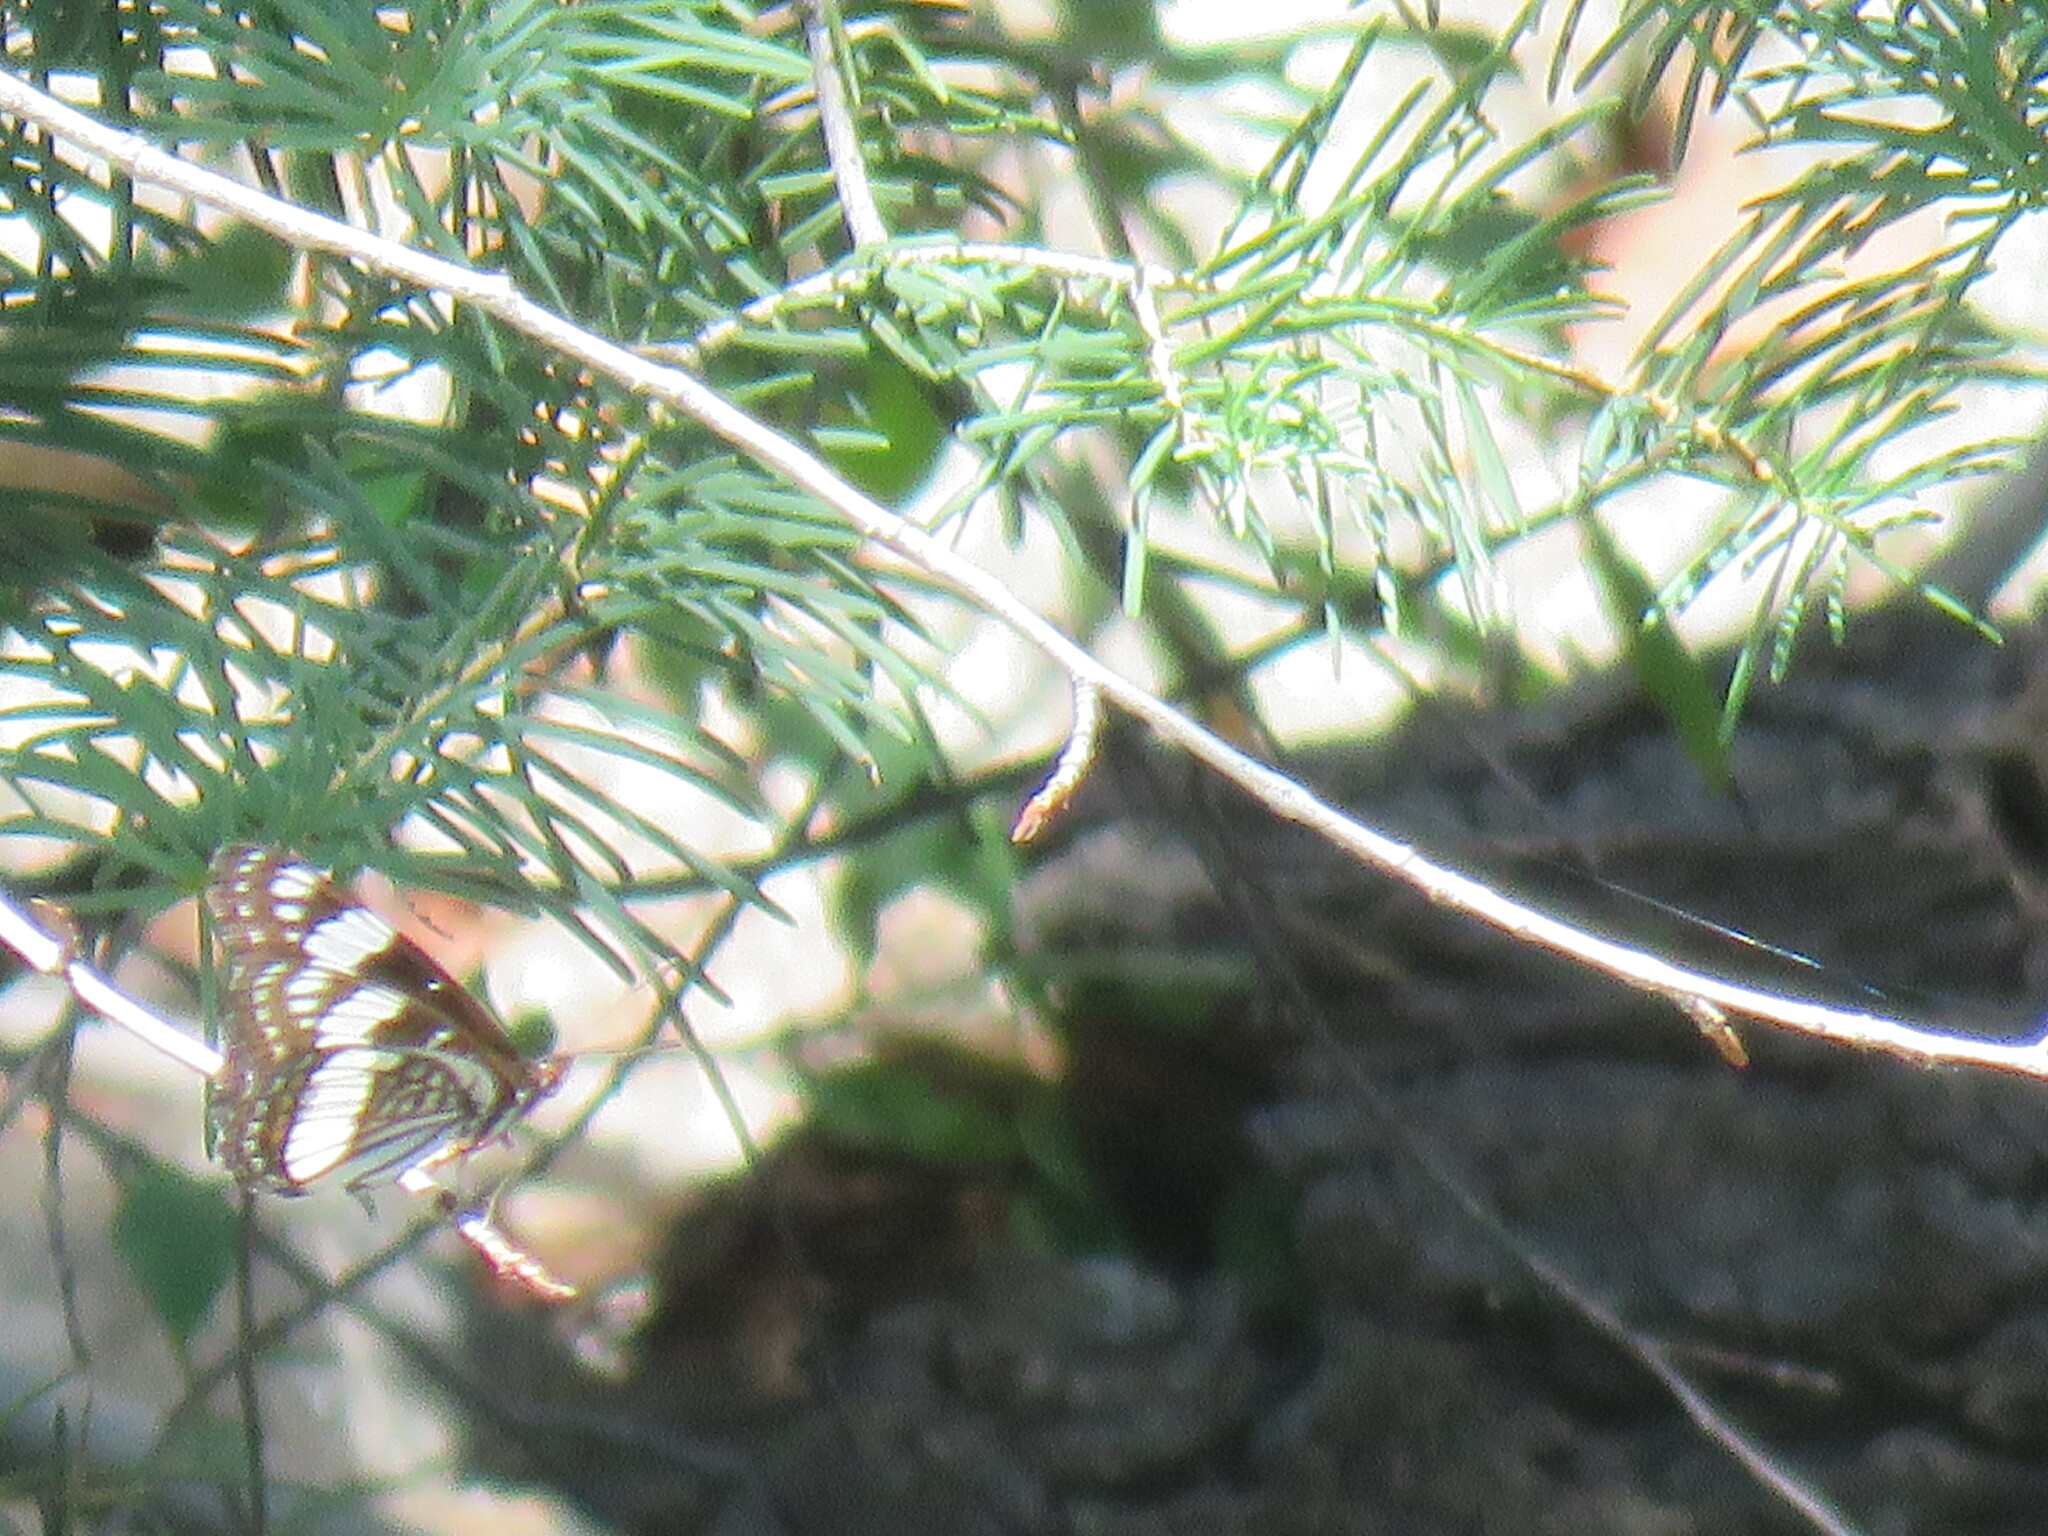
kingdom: Animalia
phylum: Arthropoda
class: Insecta
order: Lepidoptera
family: Nymphalidae
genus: Limenitis
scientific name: Limenitis weidemeyerii
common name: Weidemeyer's admiral
